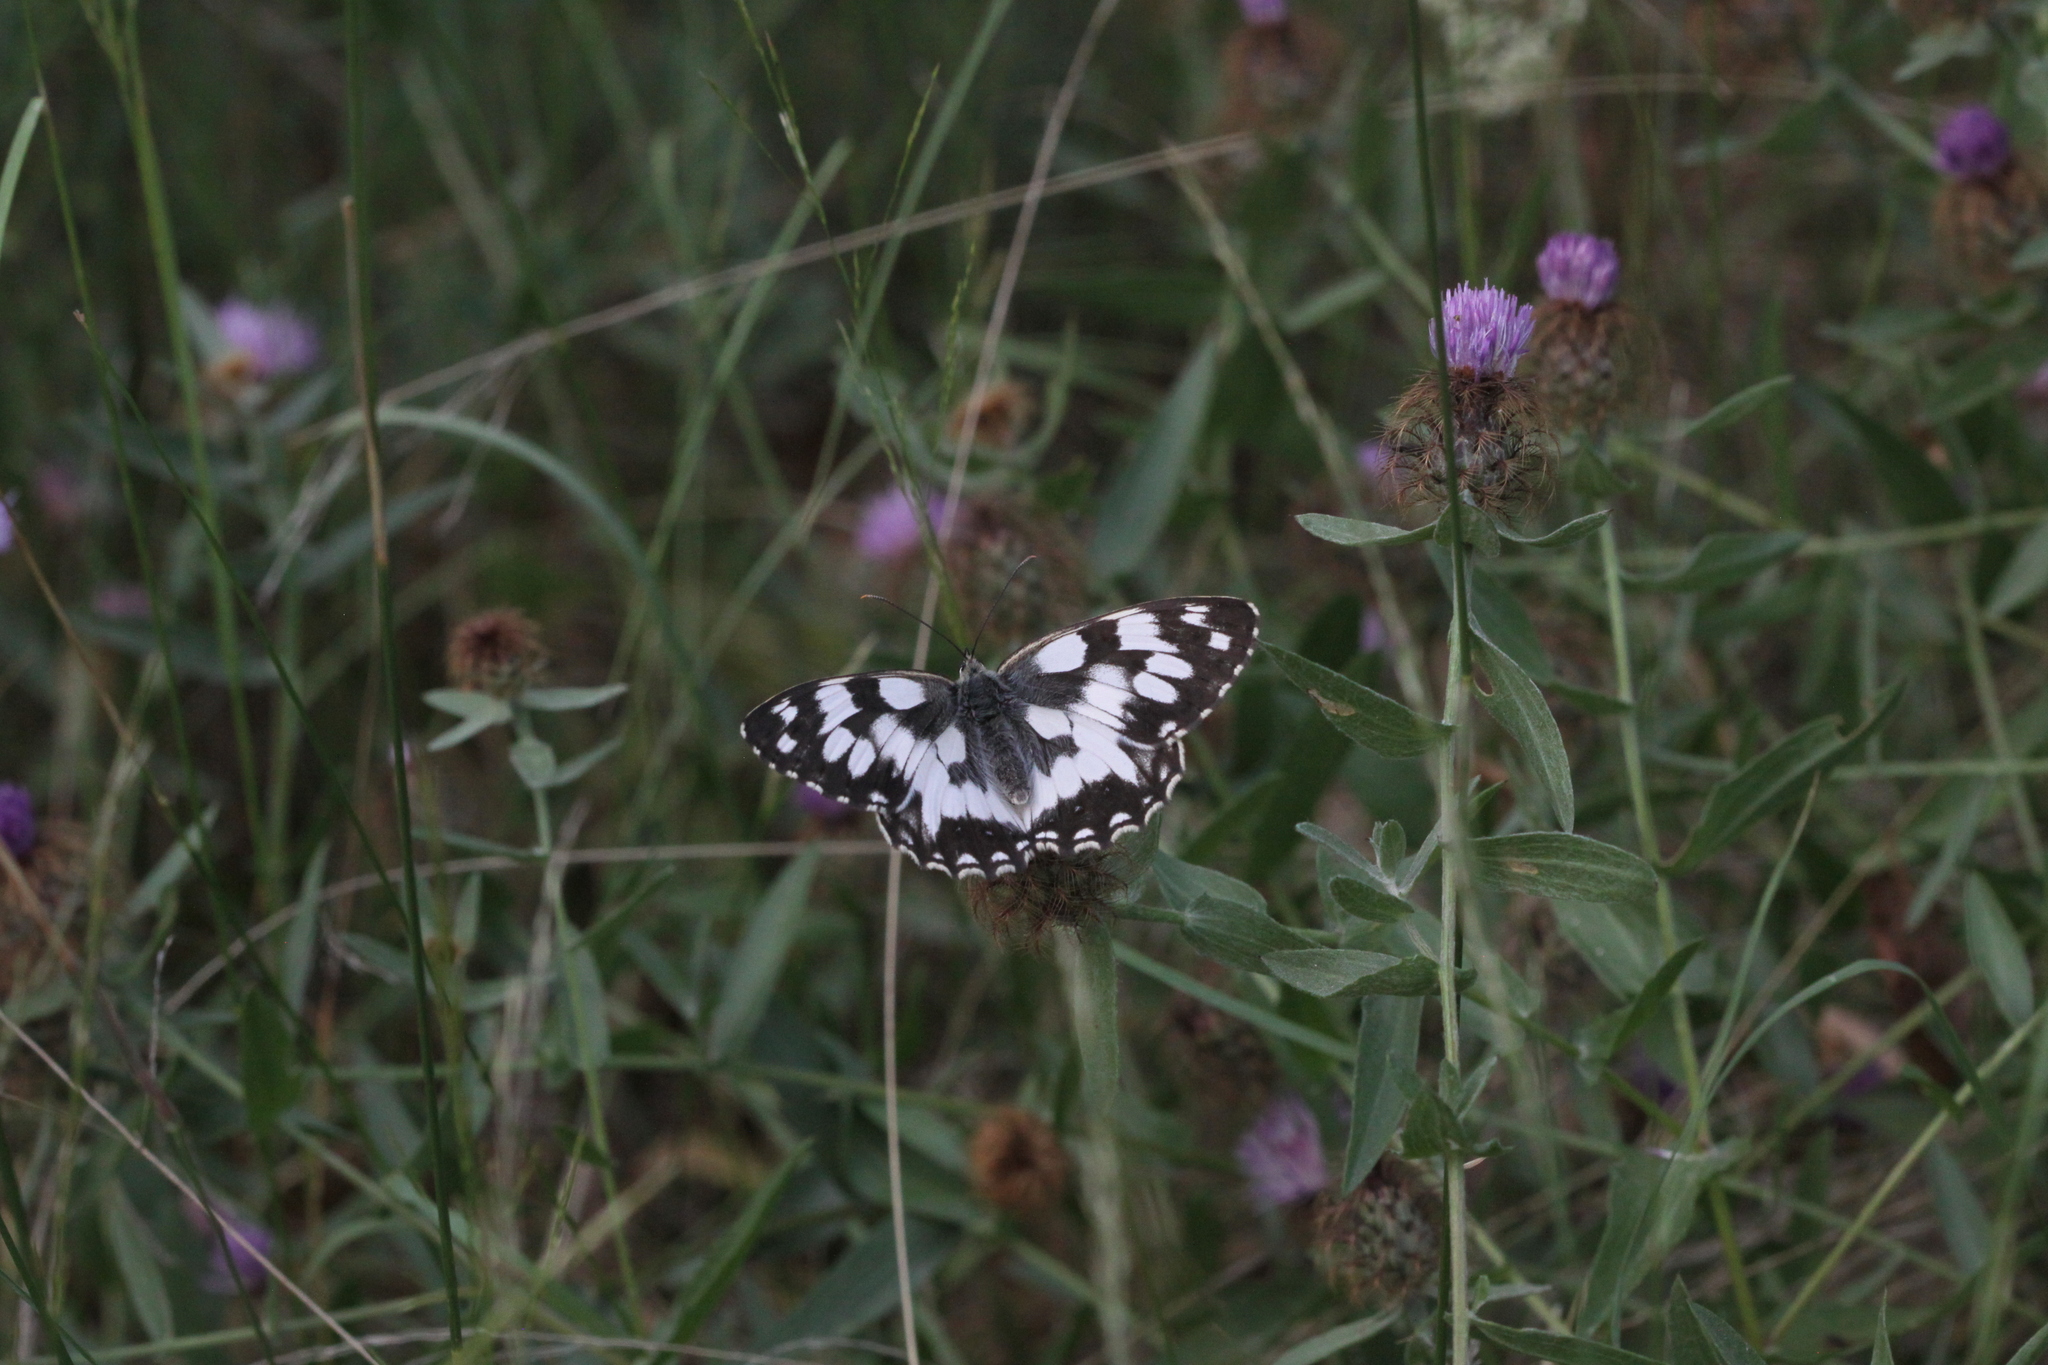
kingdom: Animalia
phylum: Arthropoda
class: Insecta
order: Lepidoptera
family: Nymphalidae
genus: Melanargia
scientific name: Melanargia galathea
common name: Marbled white
